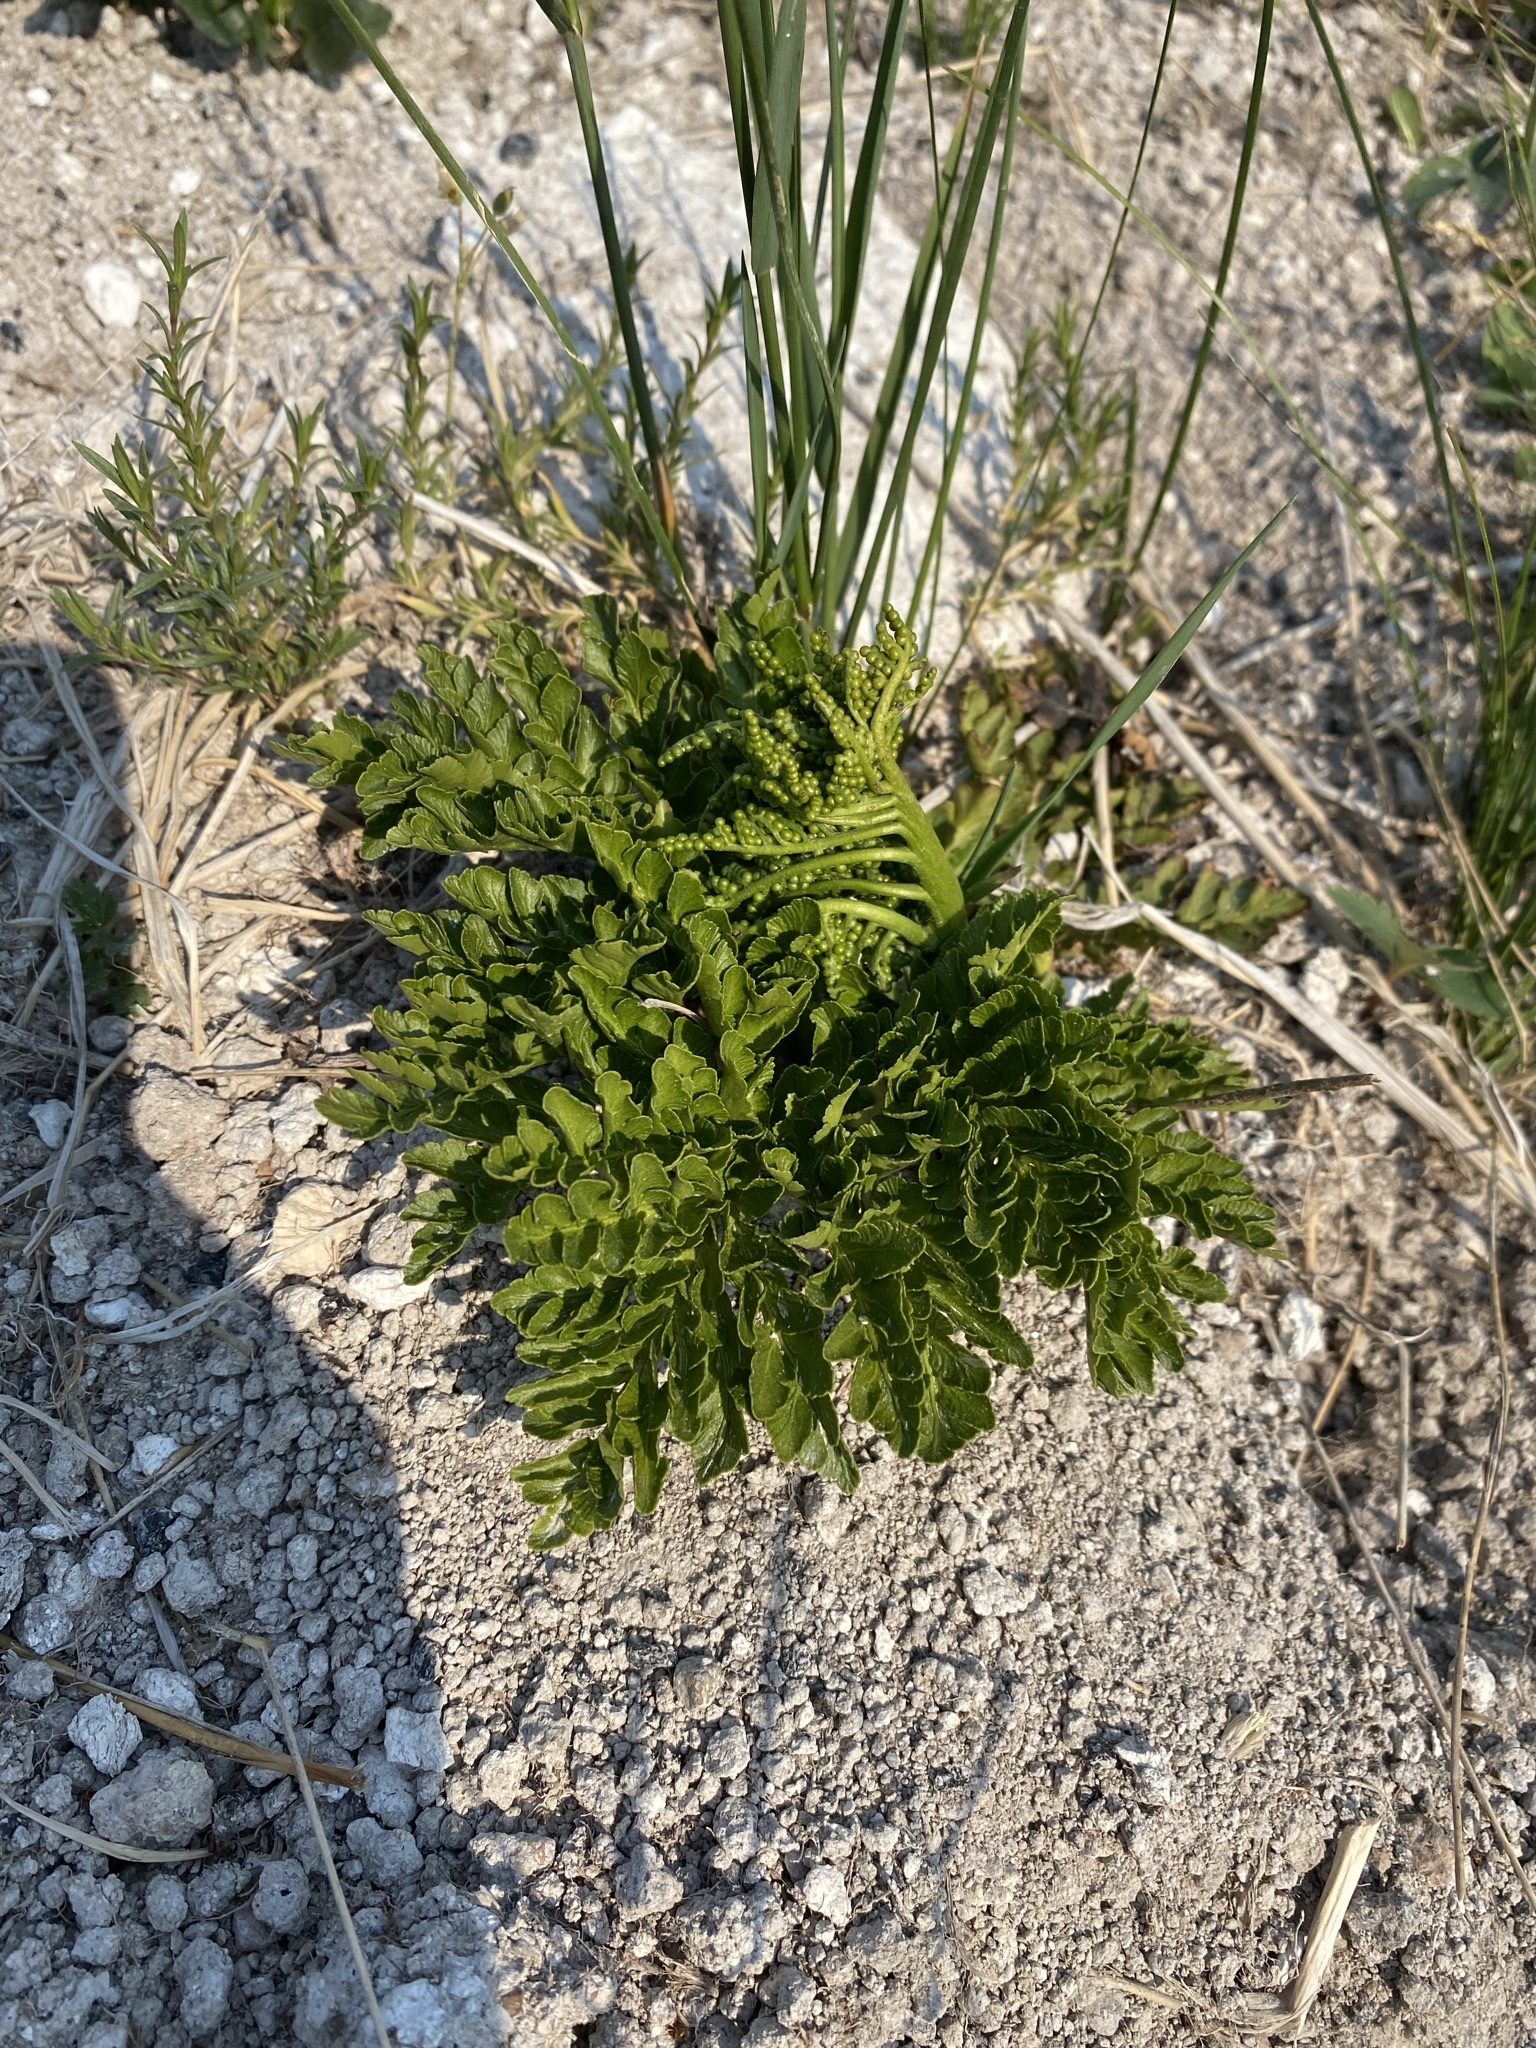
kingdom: Plantae
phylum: Tracheophyta
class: Polypodiopsida
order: Ophioglossales
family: Ophioglossaceae
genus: Sceptridium
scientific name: Sceptridium multifidum
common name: Leathery grape fern
